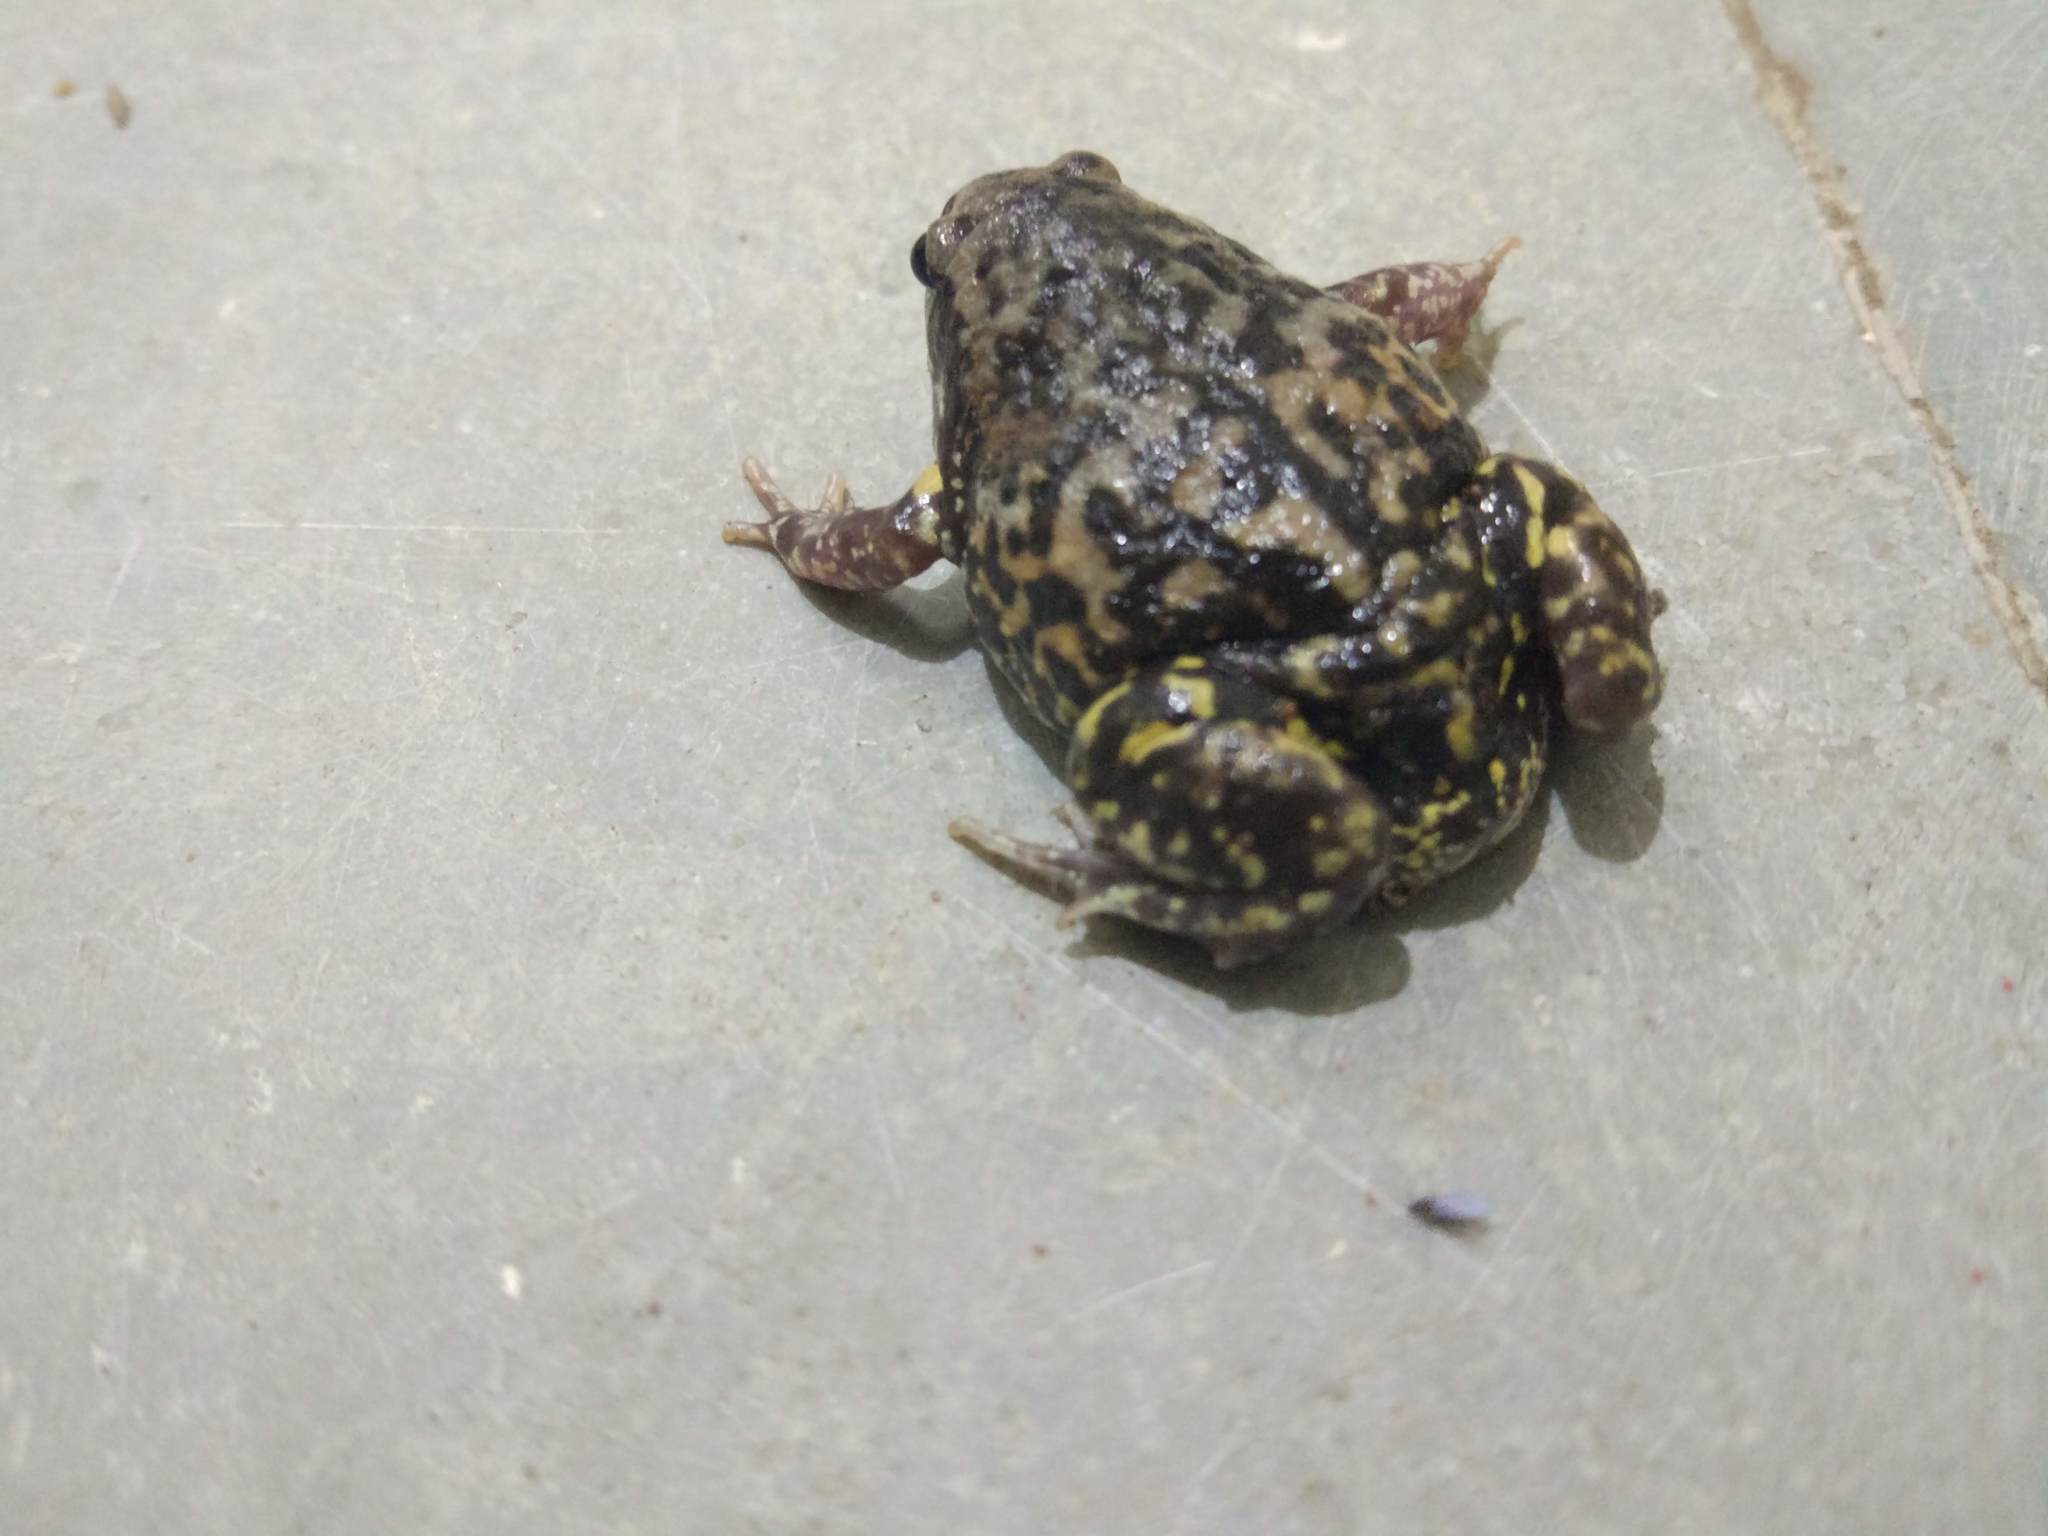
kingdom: Animalia
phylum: Chordata
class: Amphibia
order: Anura
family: Microhylidae
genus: Uperodon
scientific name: Uperodon systoma
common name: Balloon frog
